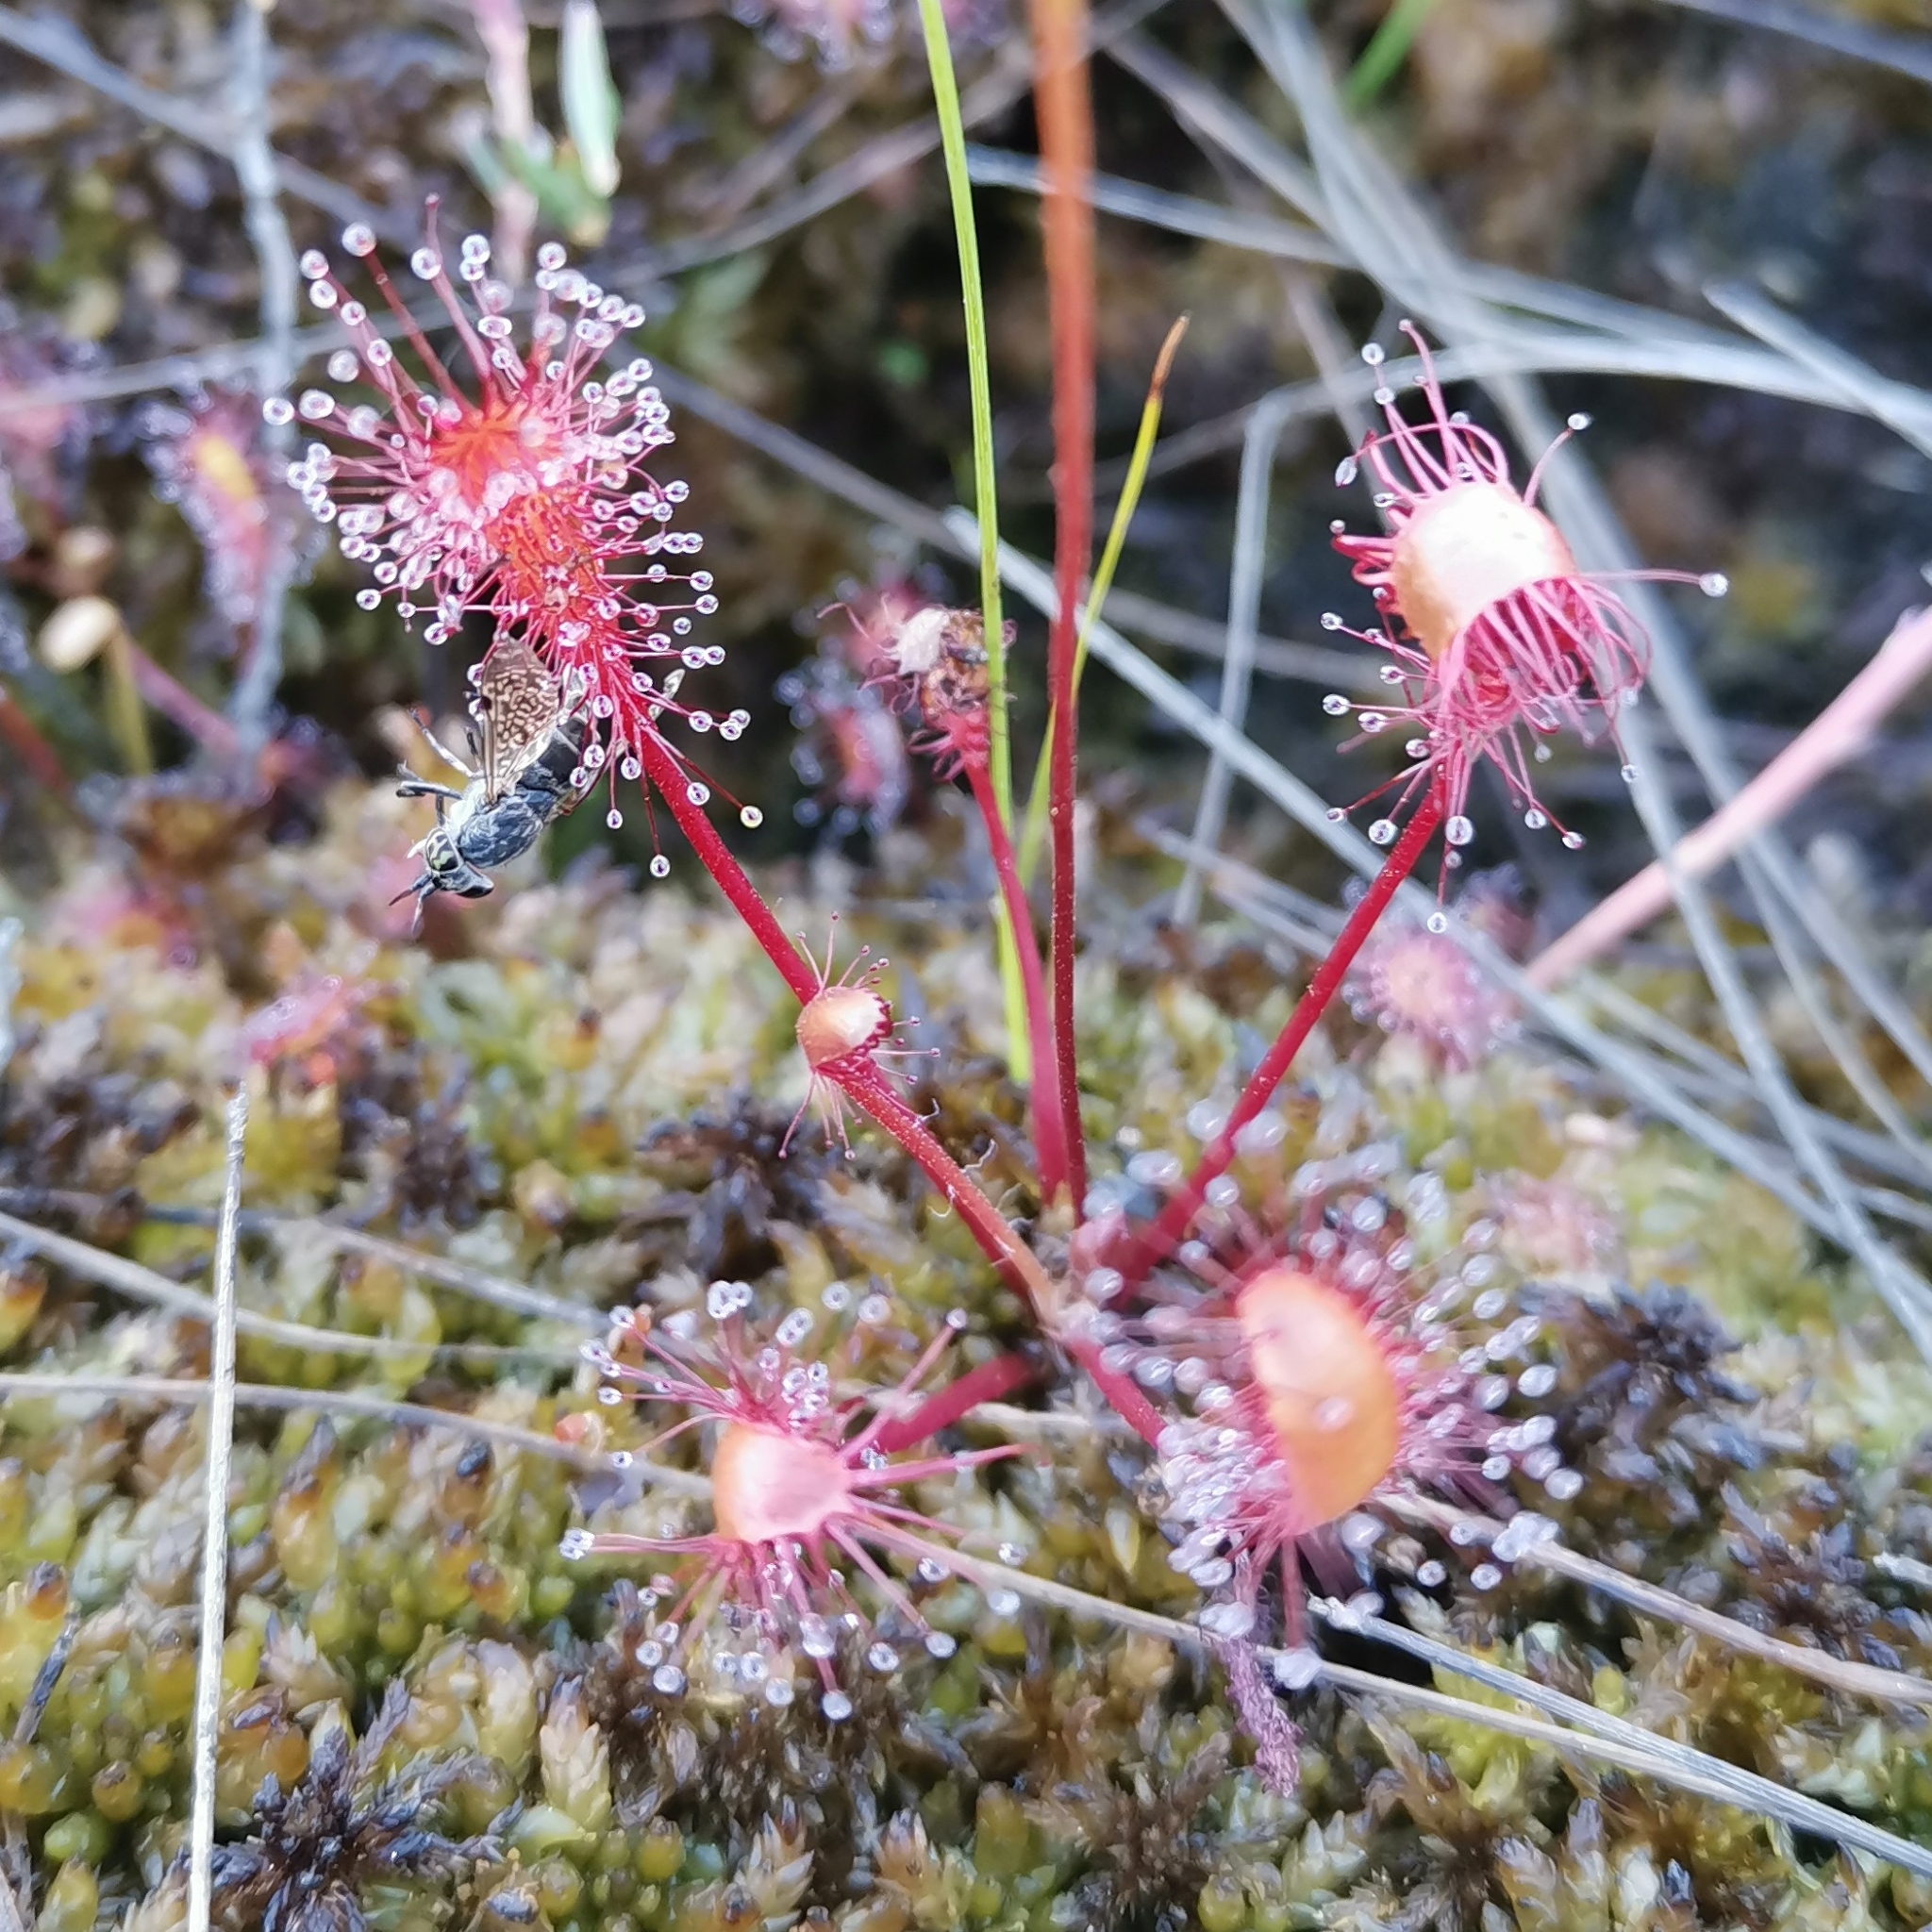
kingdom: Plantae
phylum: Tracheophyta
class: Magnoliopsida
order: Caryophyllales
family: Droseraceae
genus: Drosera
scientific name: Drosera anglica
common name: Great sundew
